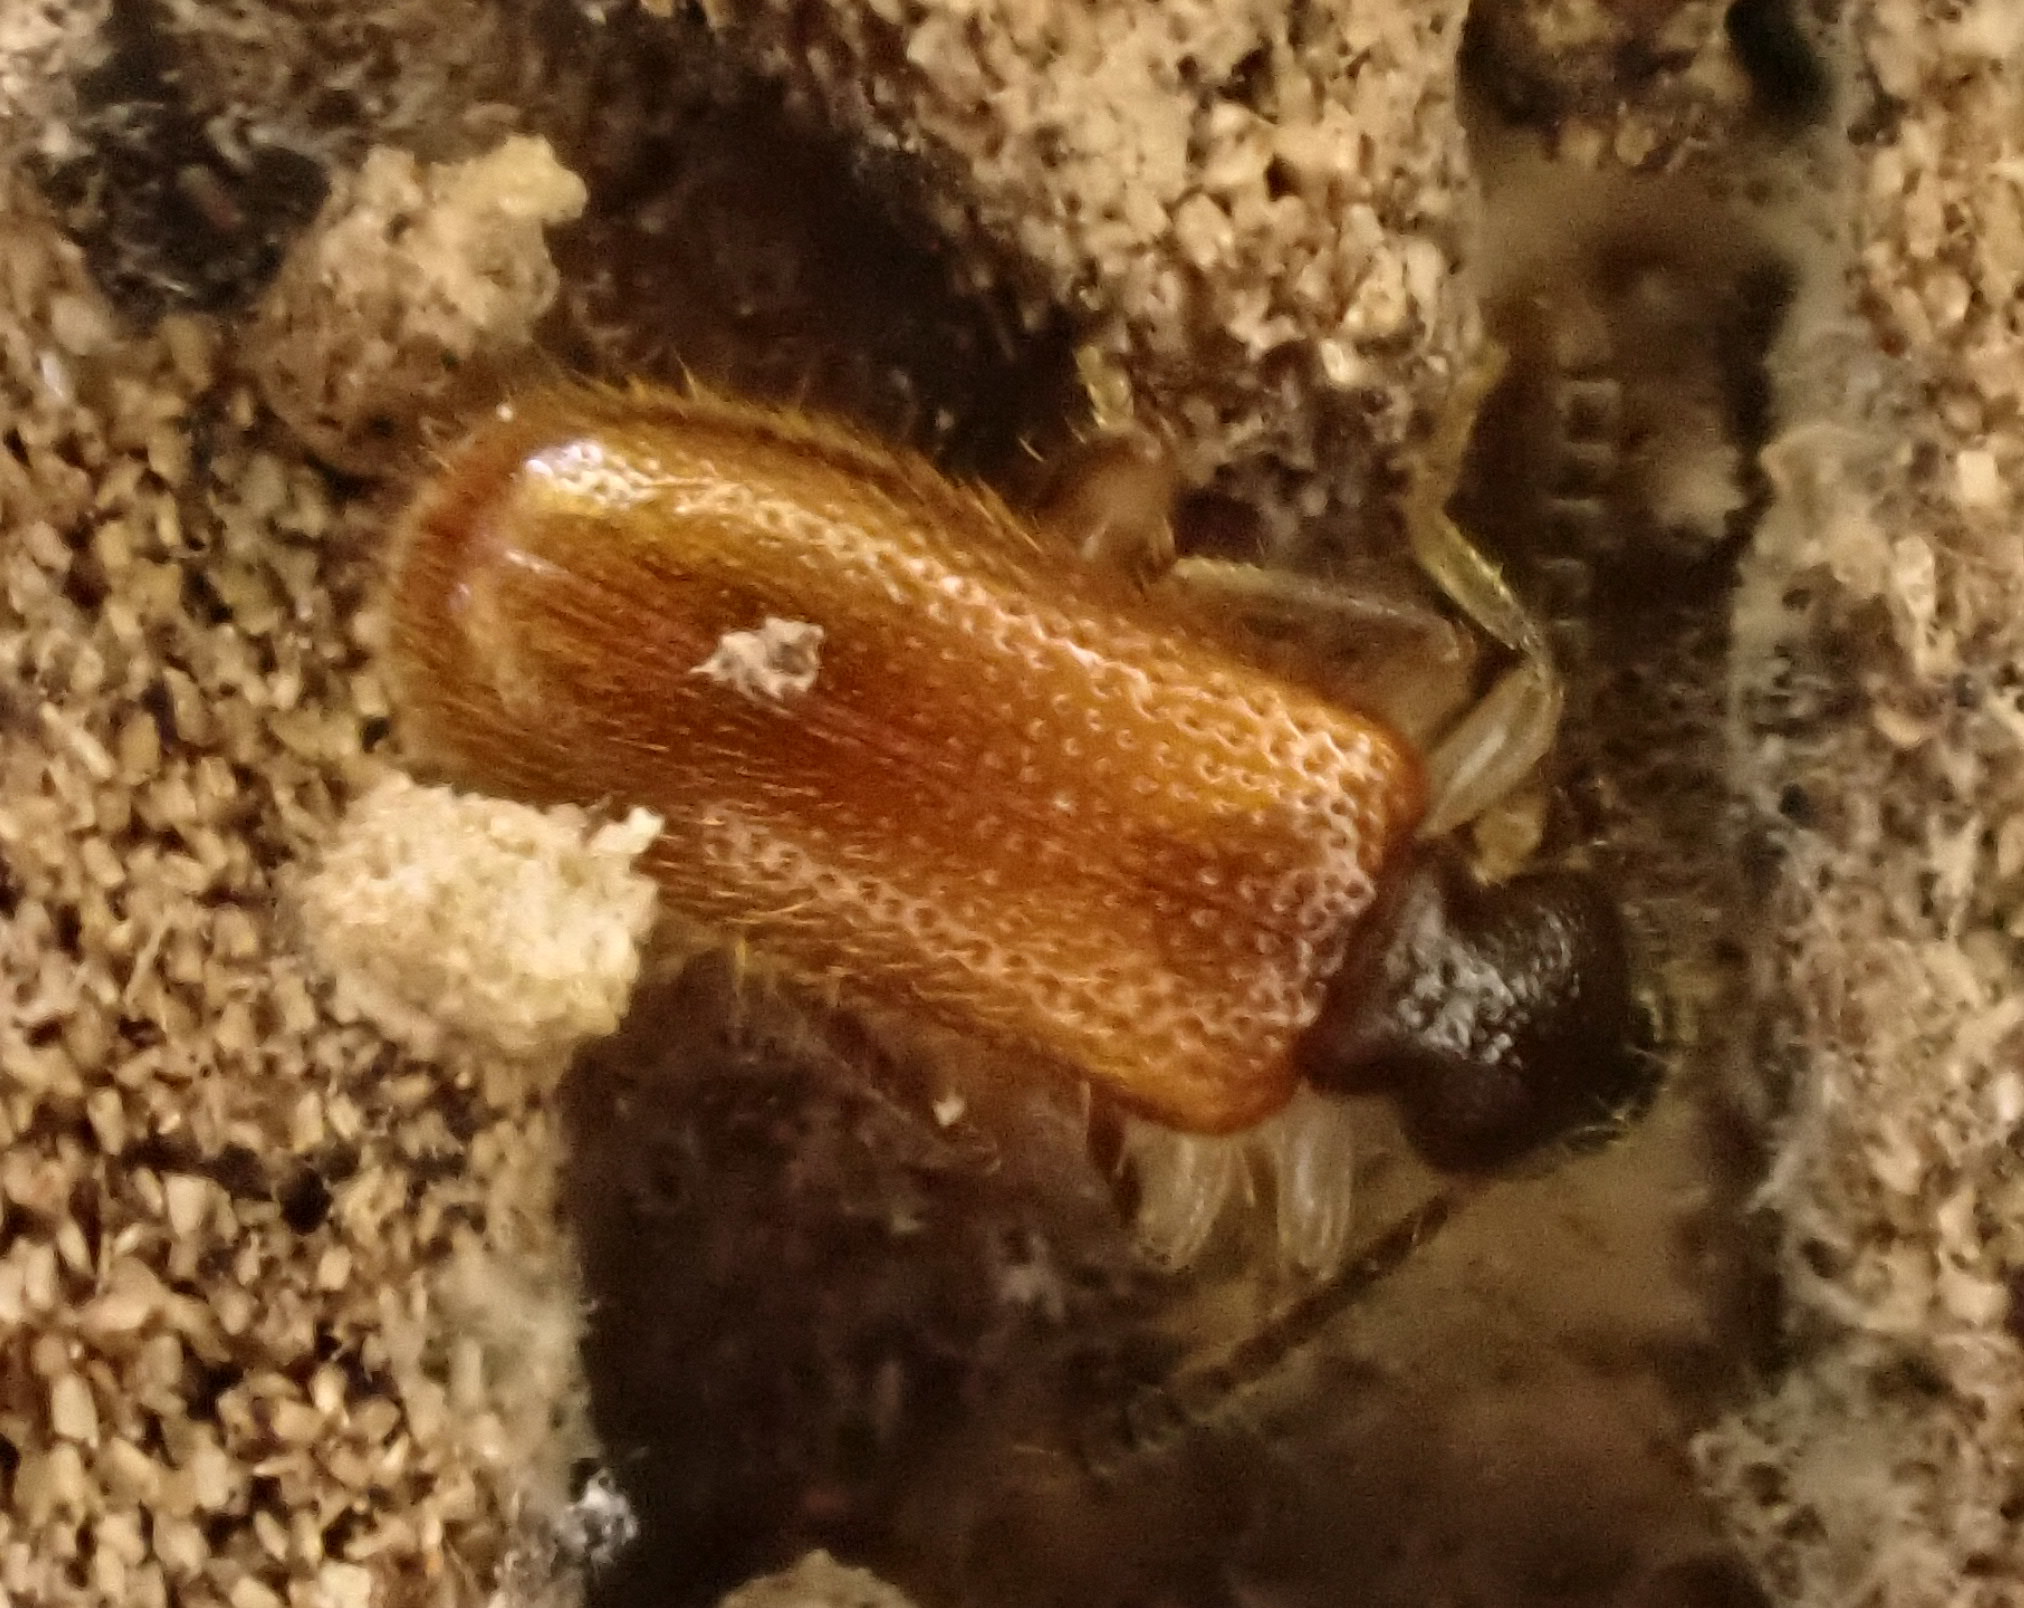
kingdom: Animalia
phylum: Arthropoda
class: Insecta
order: Coleoptera
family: Anthicidae
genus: Trichananca
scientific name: Trichananca fulgida
